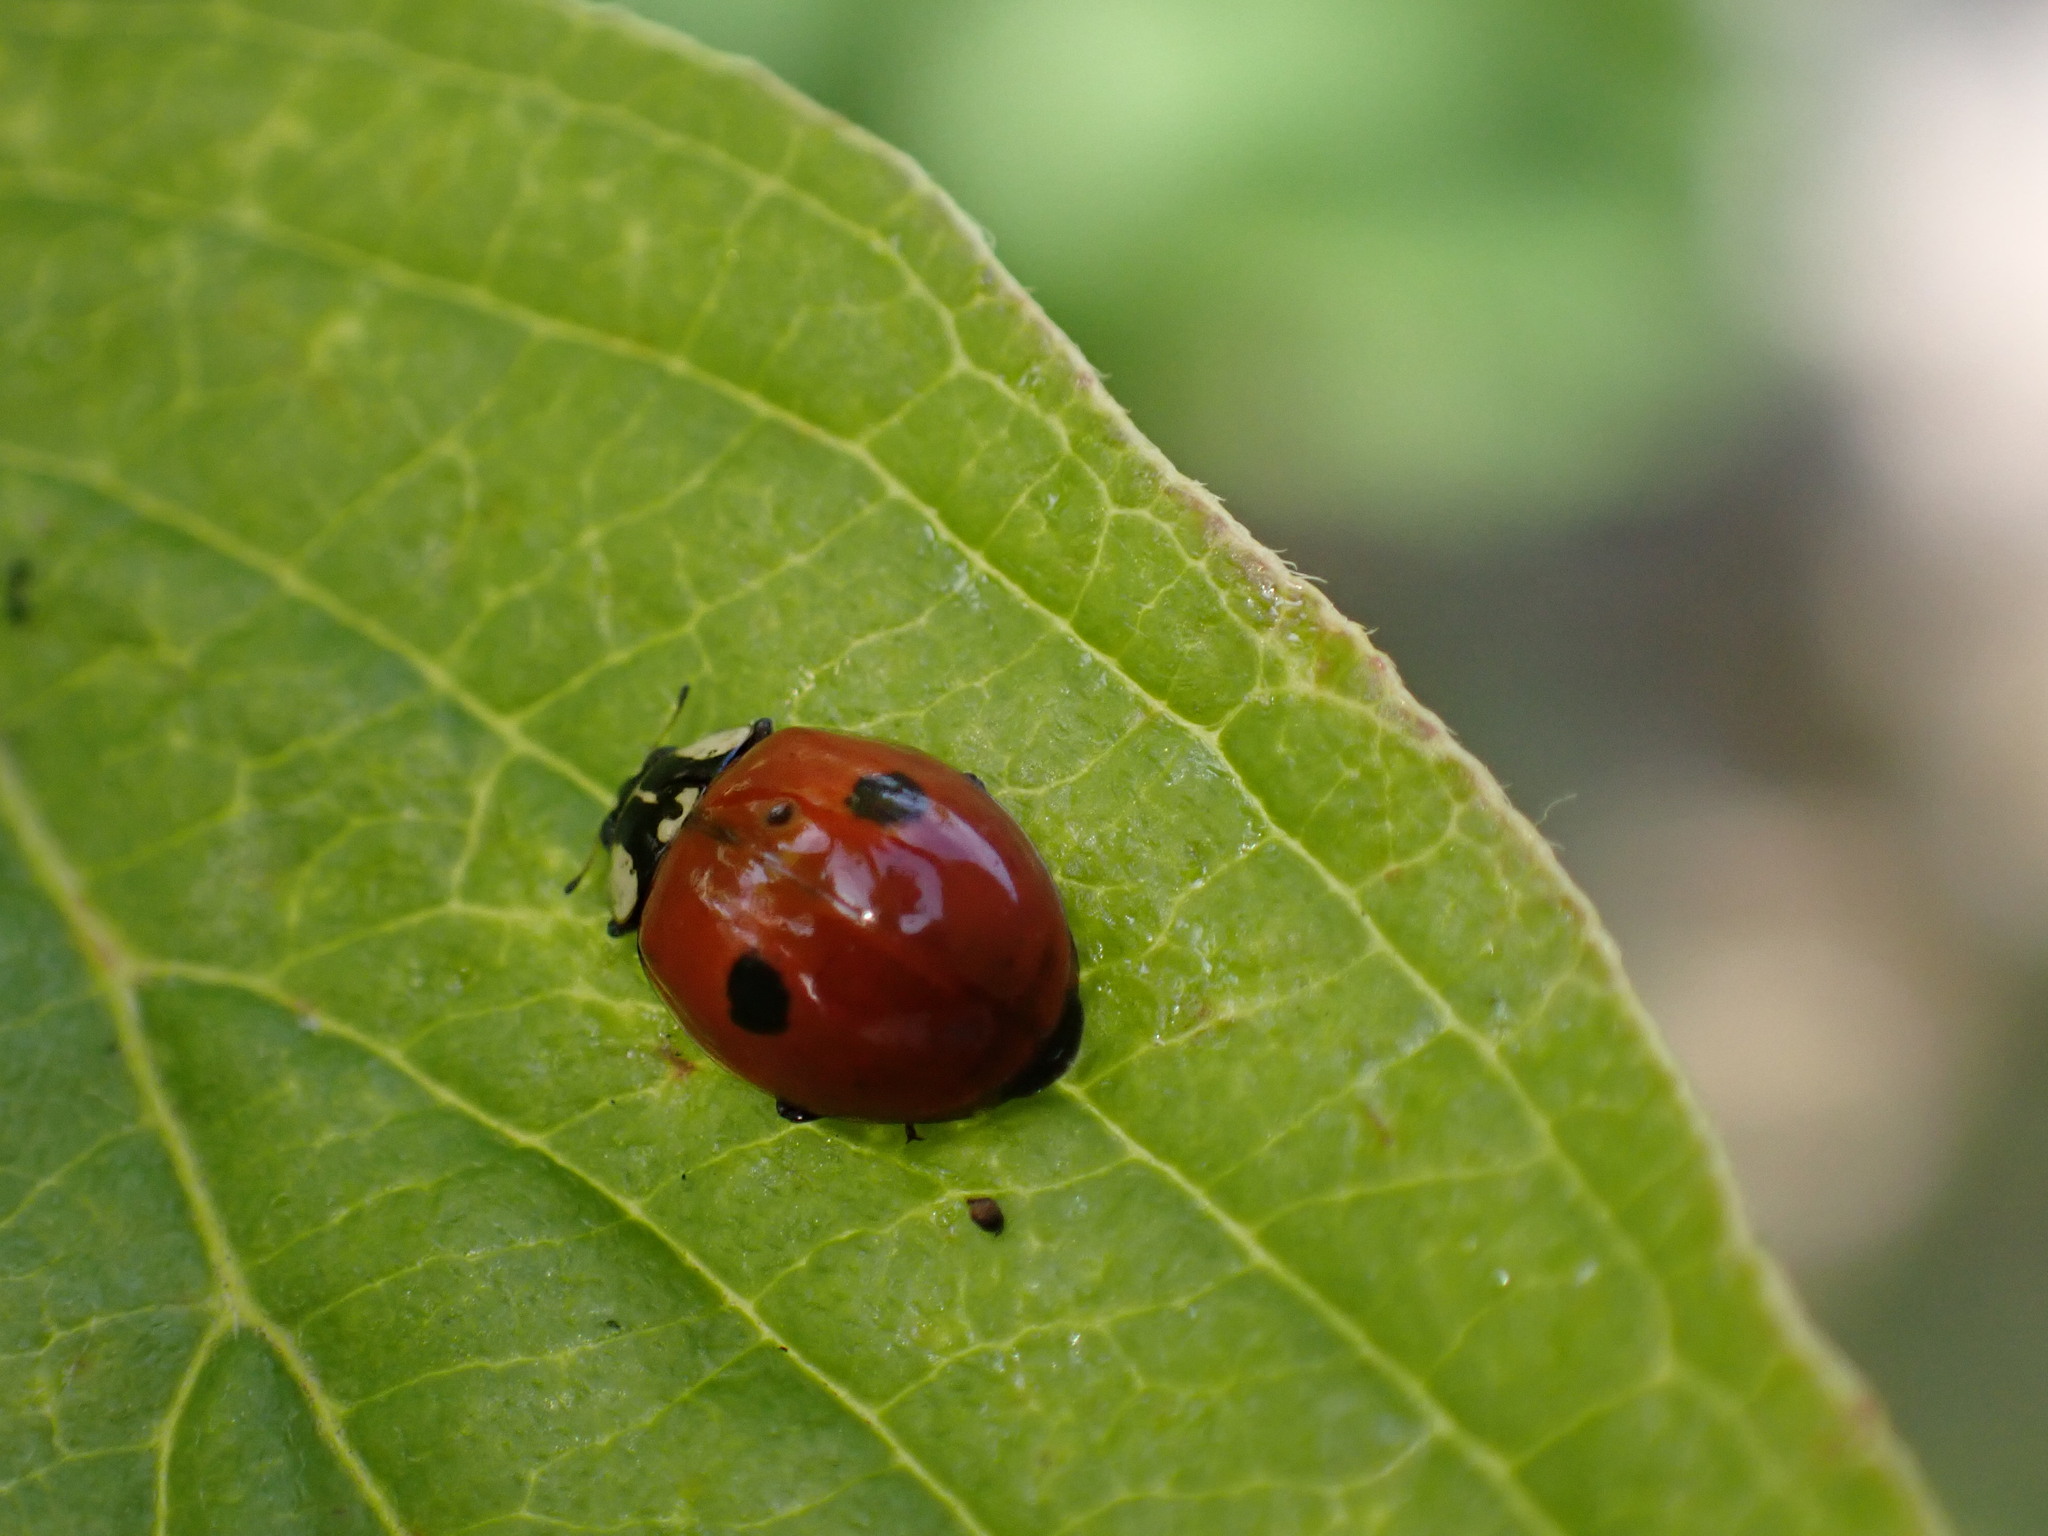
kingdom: Animalia
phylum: Arthropoda
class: Insecta
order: Coleoptera
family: Coccinellidae
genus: Adalia
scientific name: Adalia bipunctata
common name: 2-spot ladybird
